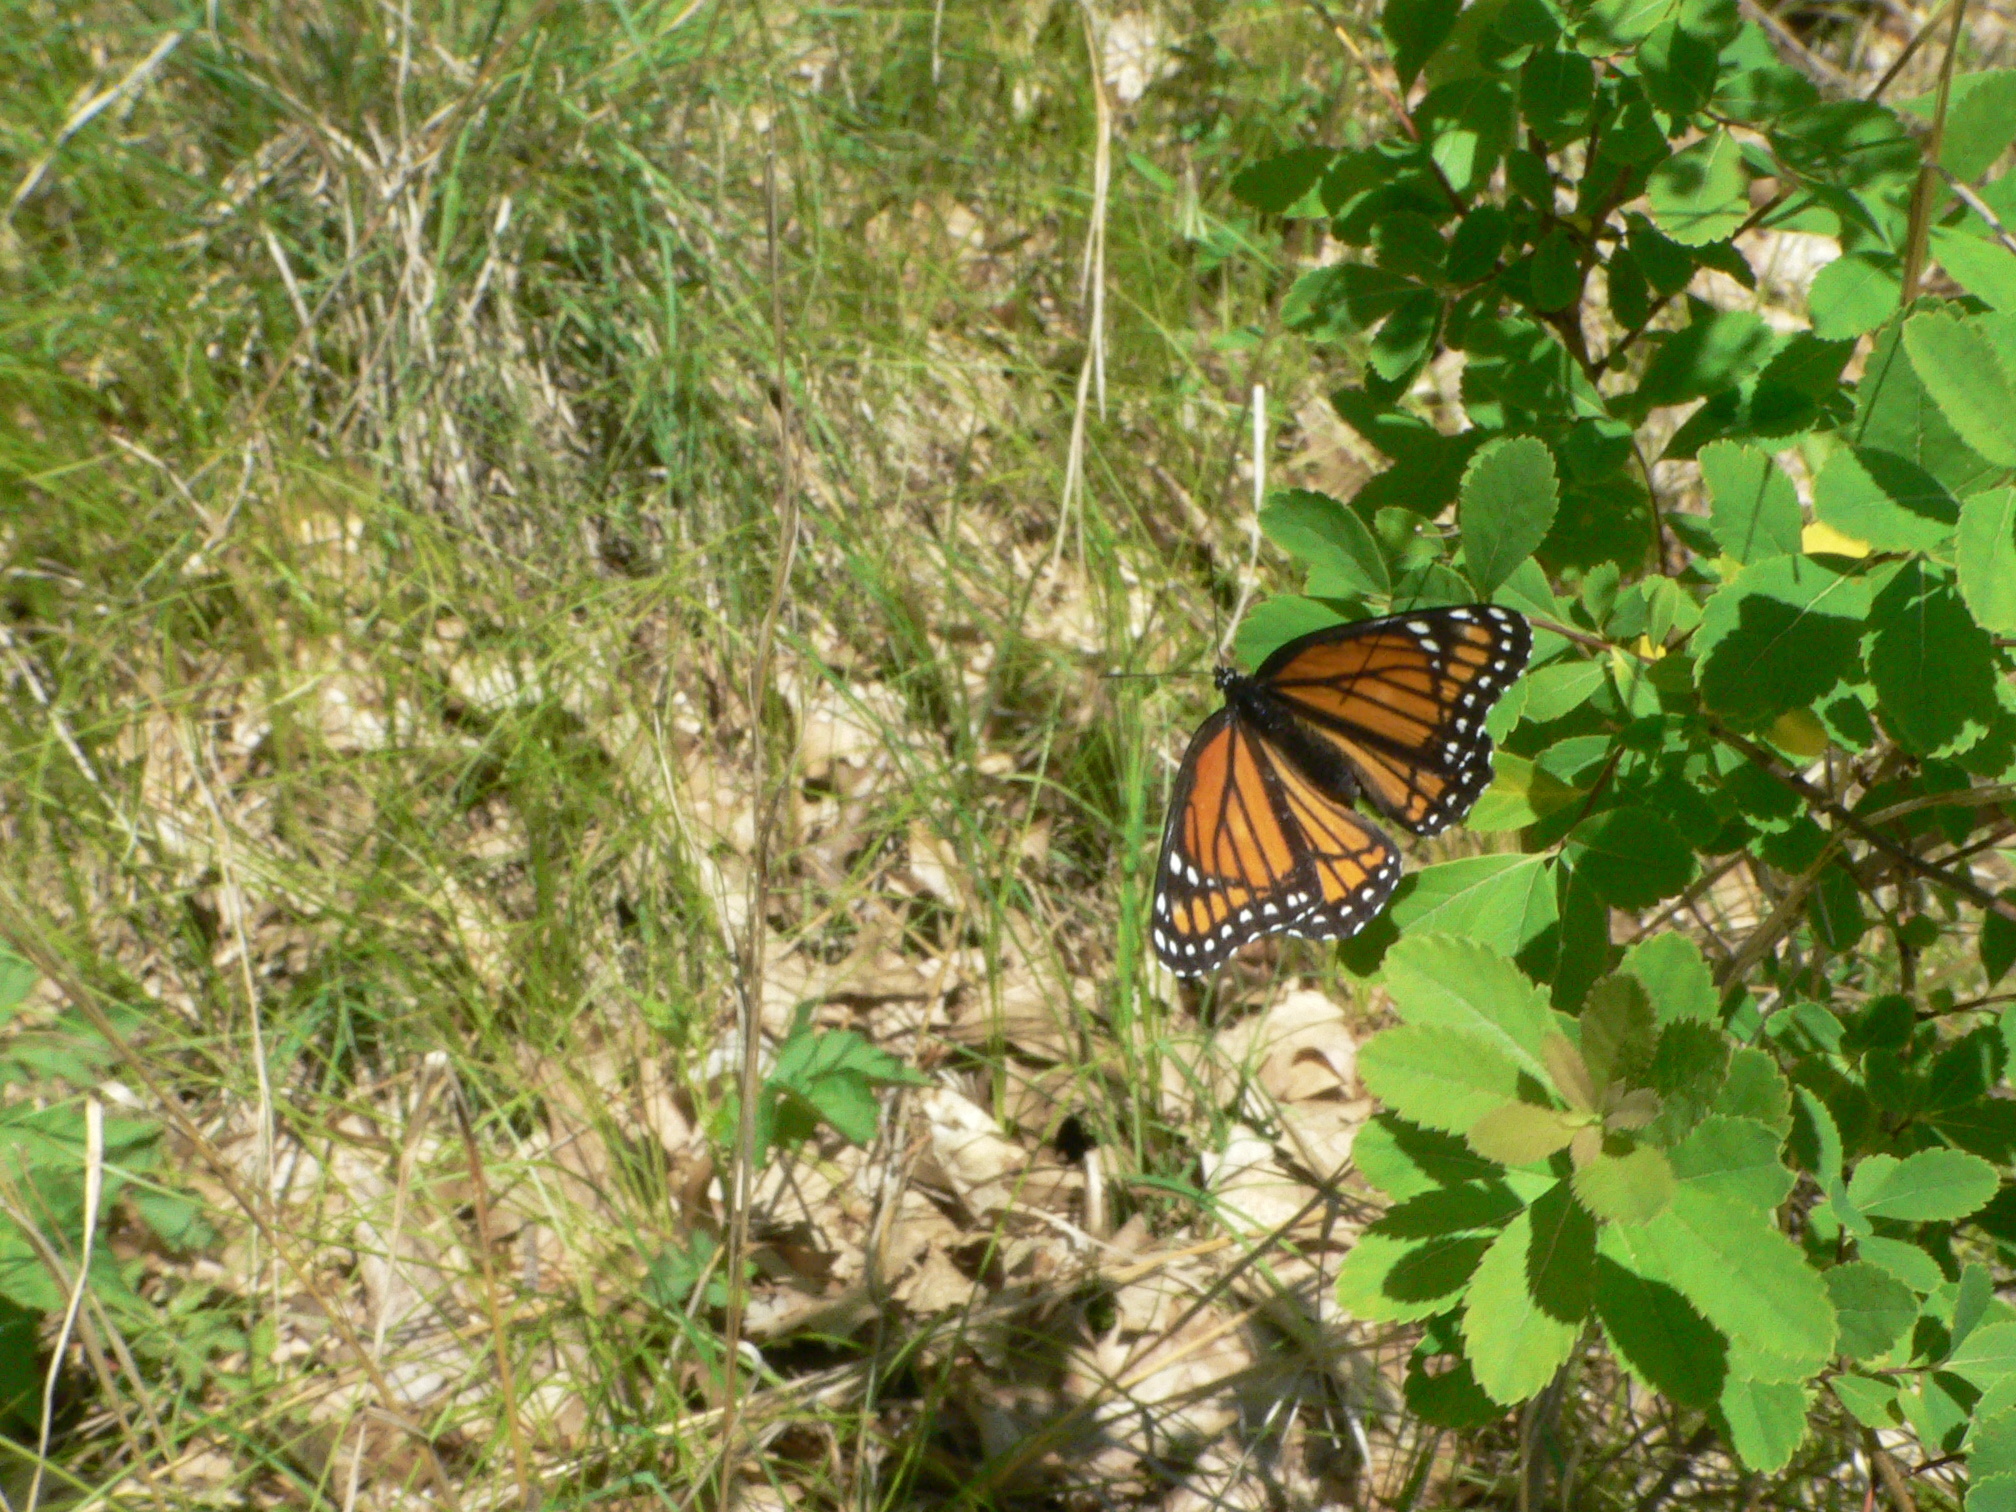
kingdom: Animalia
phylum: Arthropoda
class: Insecta
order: Lepidoptera
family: Nymphalidae
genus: Limenitis
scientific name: Limenitis archippus
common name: Viceroy
